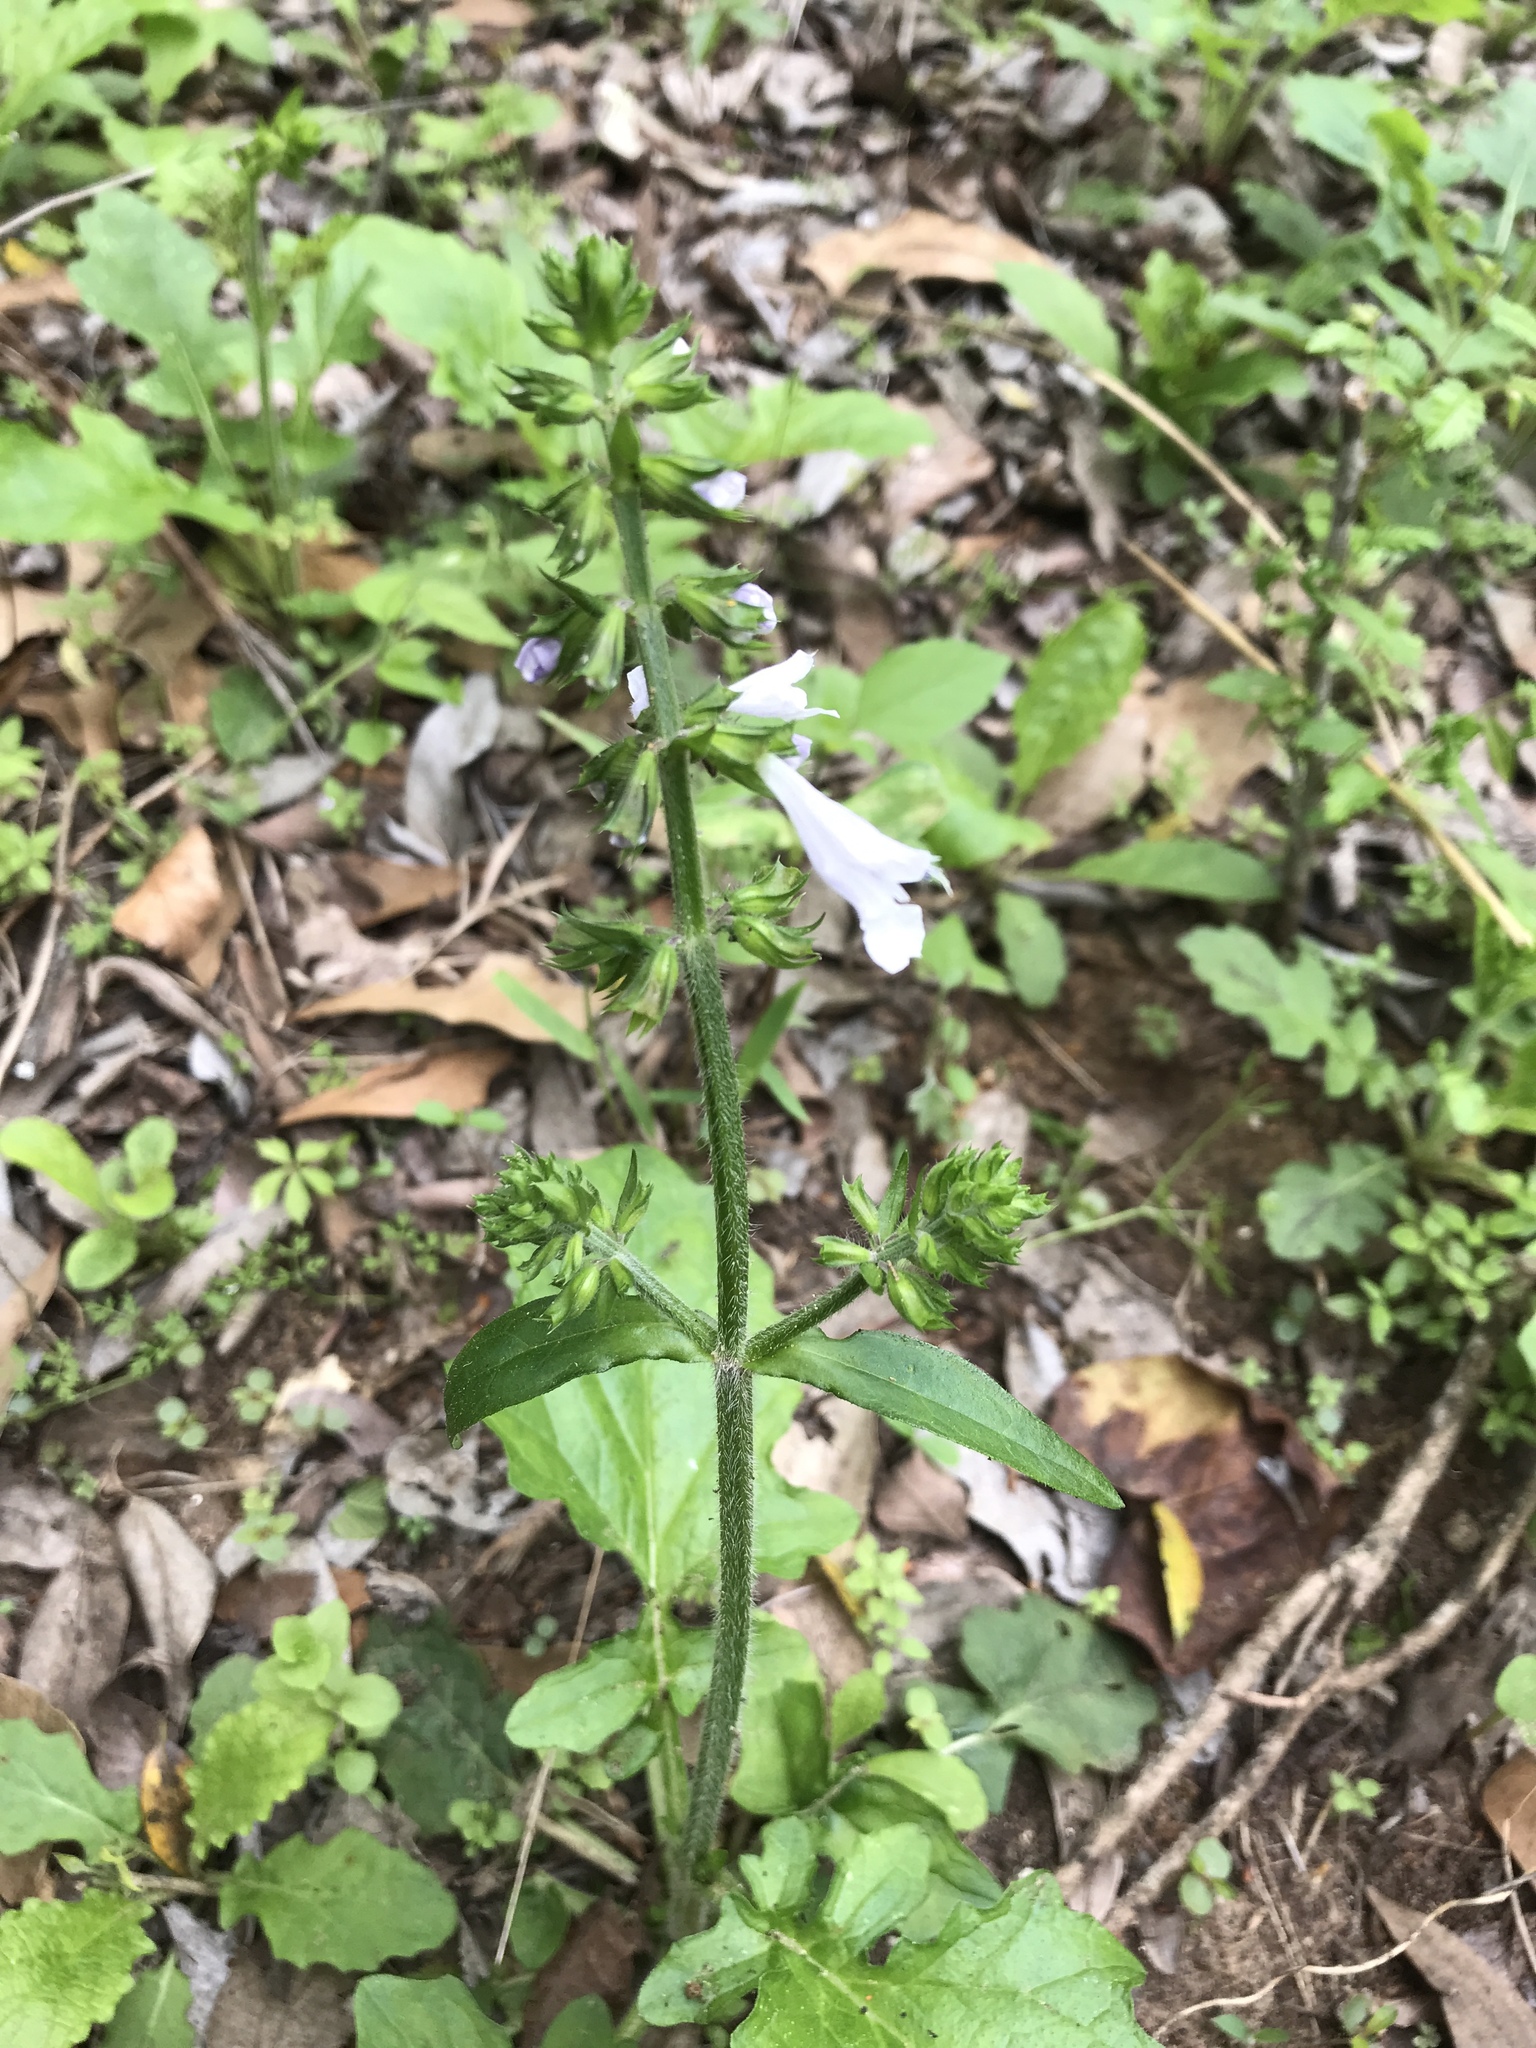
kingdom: Plantae
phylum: Tracheophyta
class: Magnoliopsida
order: Lamiales
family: Lamiaceae
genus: Salvia
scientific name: Salvia lyrata
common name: Cancerweed
